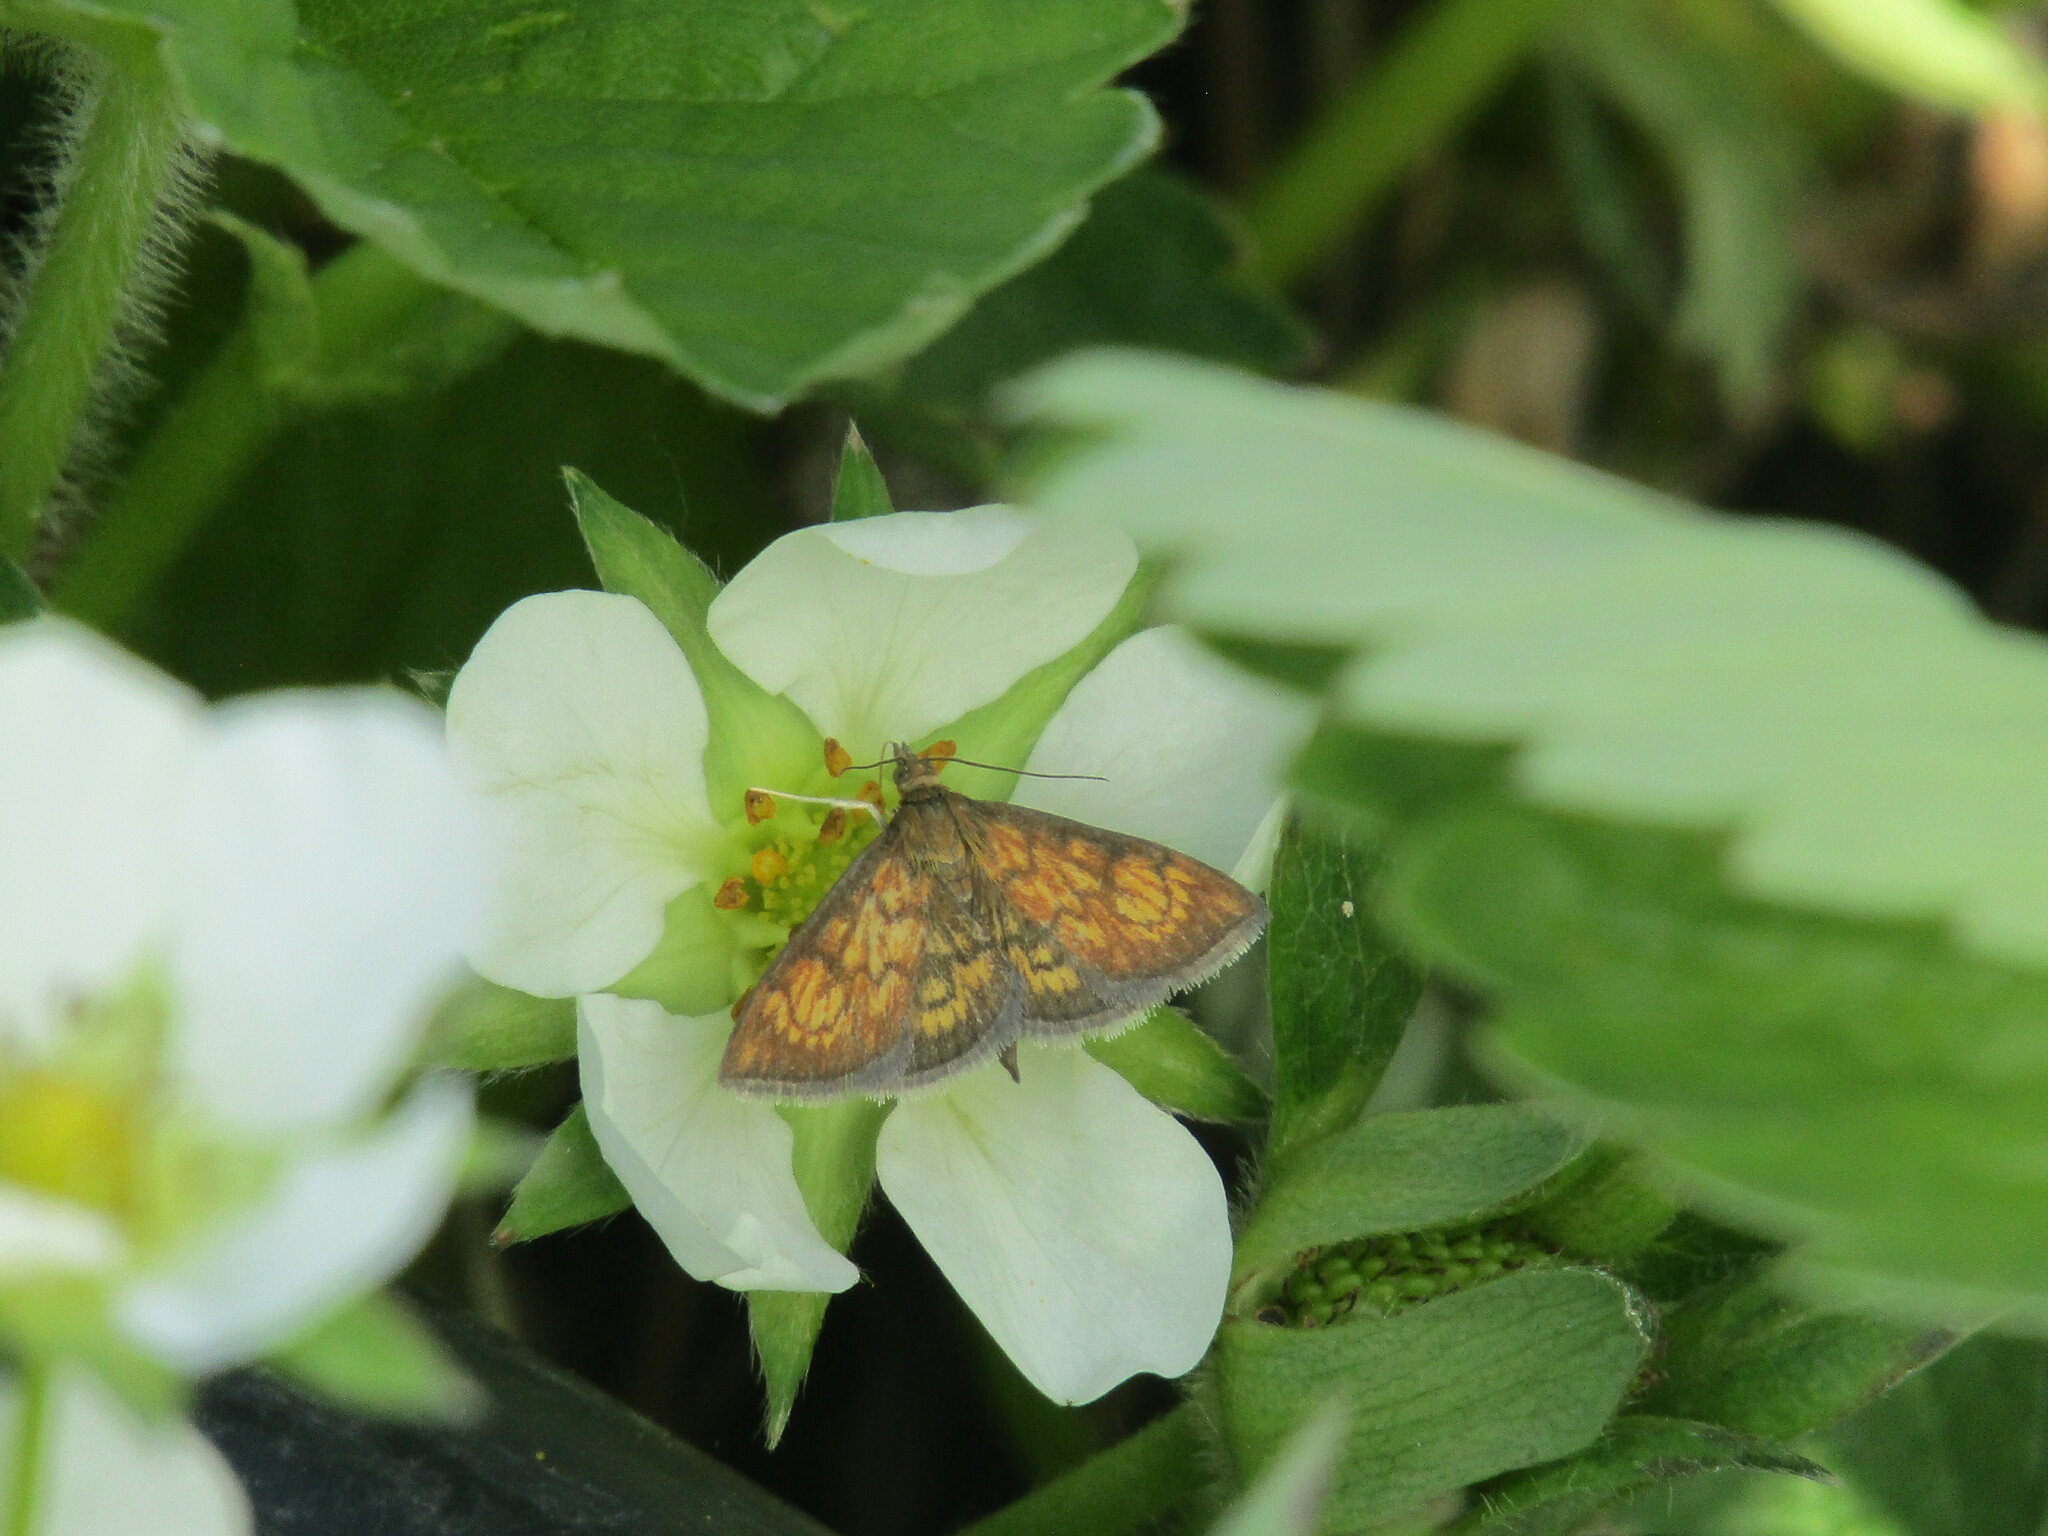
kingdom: Animalia
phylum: Arthropoda
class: Insecta
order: Lepidoptera
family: Crambidae
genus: Ecpyrrhorrhoe
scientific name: Ecpyrrhorrhoe rubiginalis
